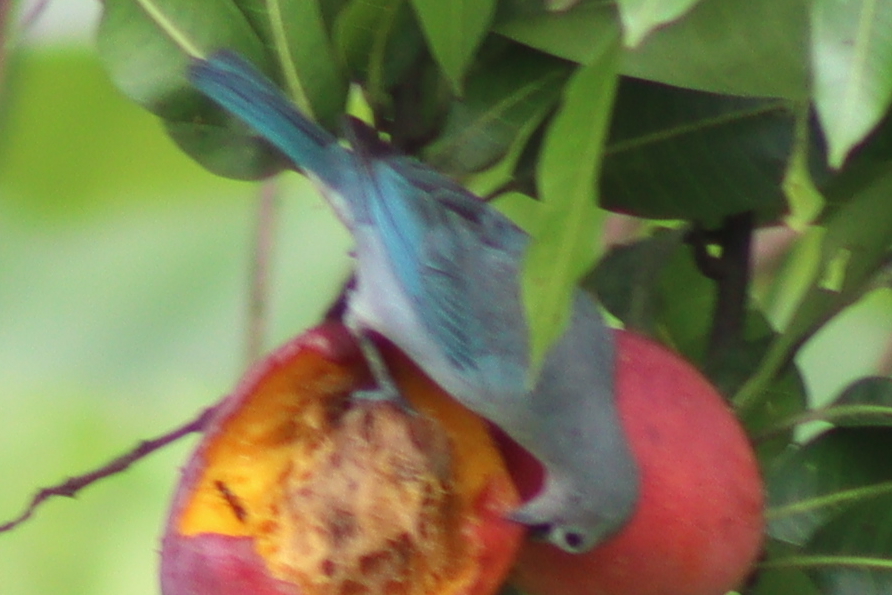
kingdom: Animalia
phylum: Chordata
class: Aves
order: Passeriformes
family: Thraupidae
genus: Thraupis
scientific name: Thraupis sayaca
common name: Sayaca tanager
